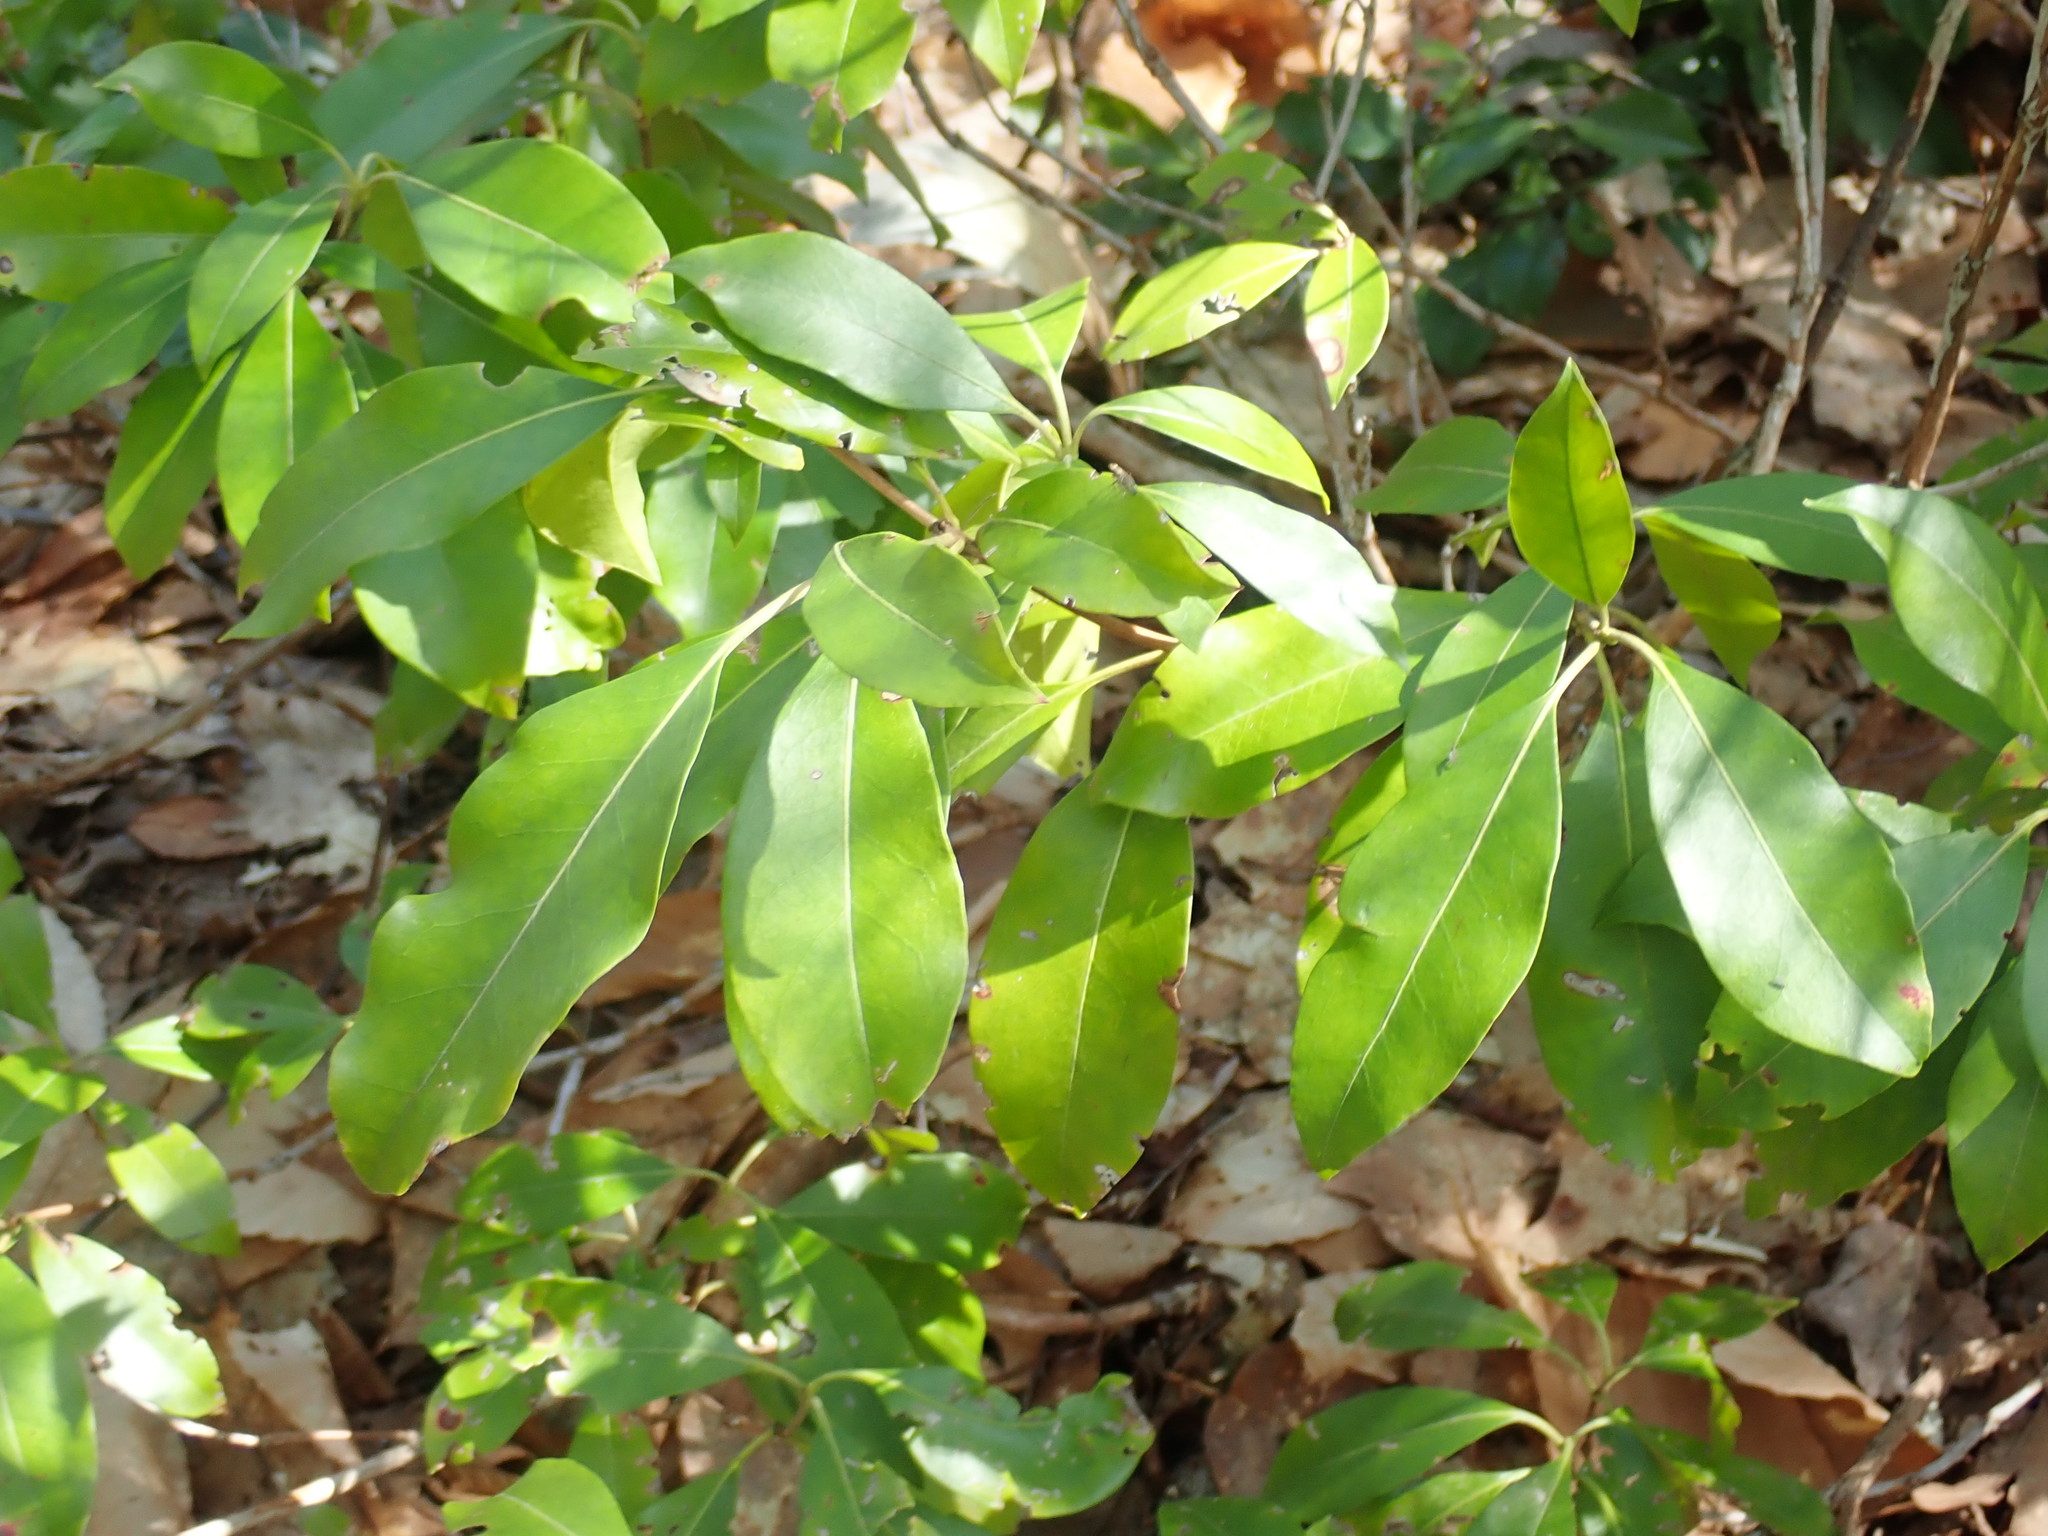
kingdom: Plantae
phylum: Tracheophyta
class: Magnoliopsida
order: Ericales
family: Ericaceae
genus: Kalmia
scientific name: Kalmia latifolia
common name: Mountain-laurel
